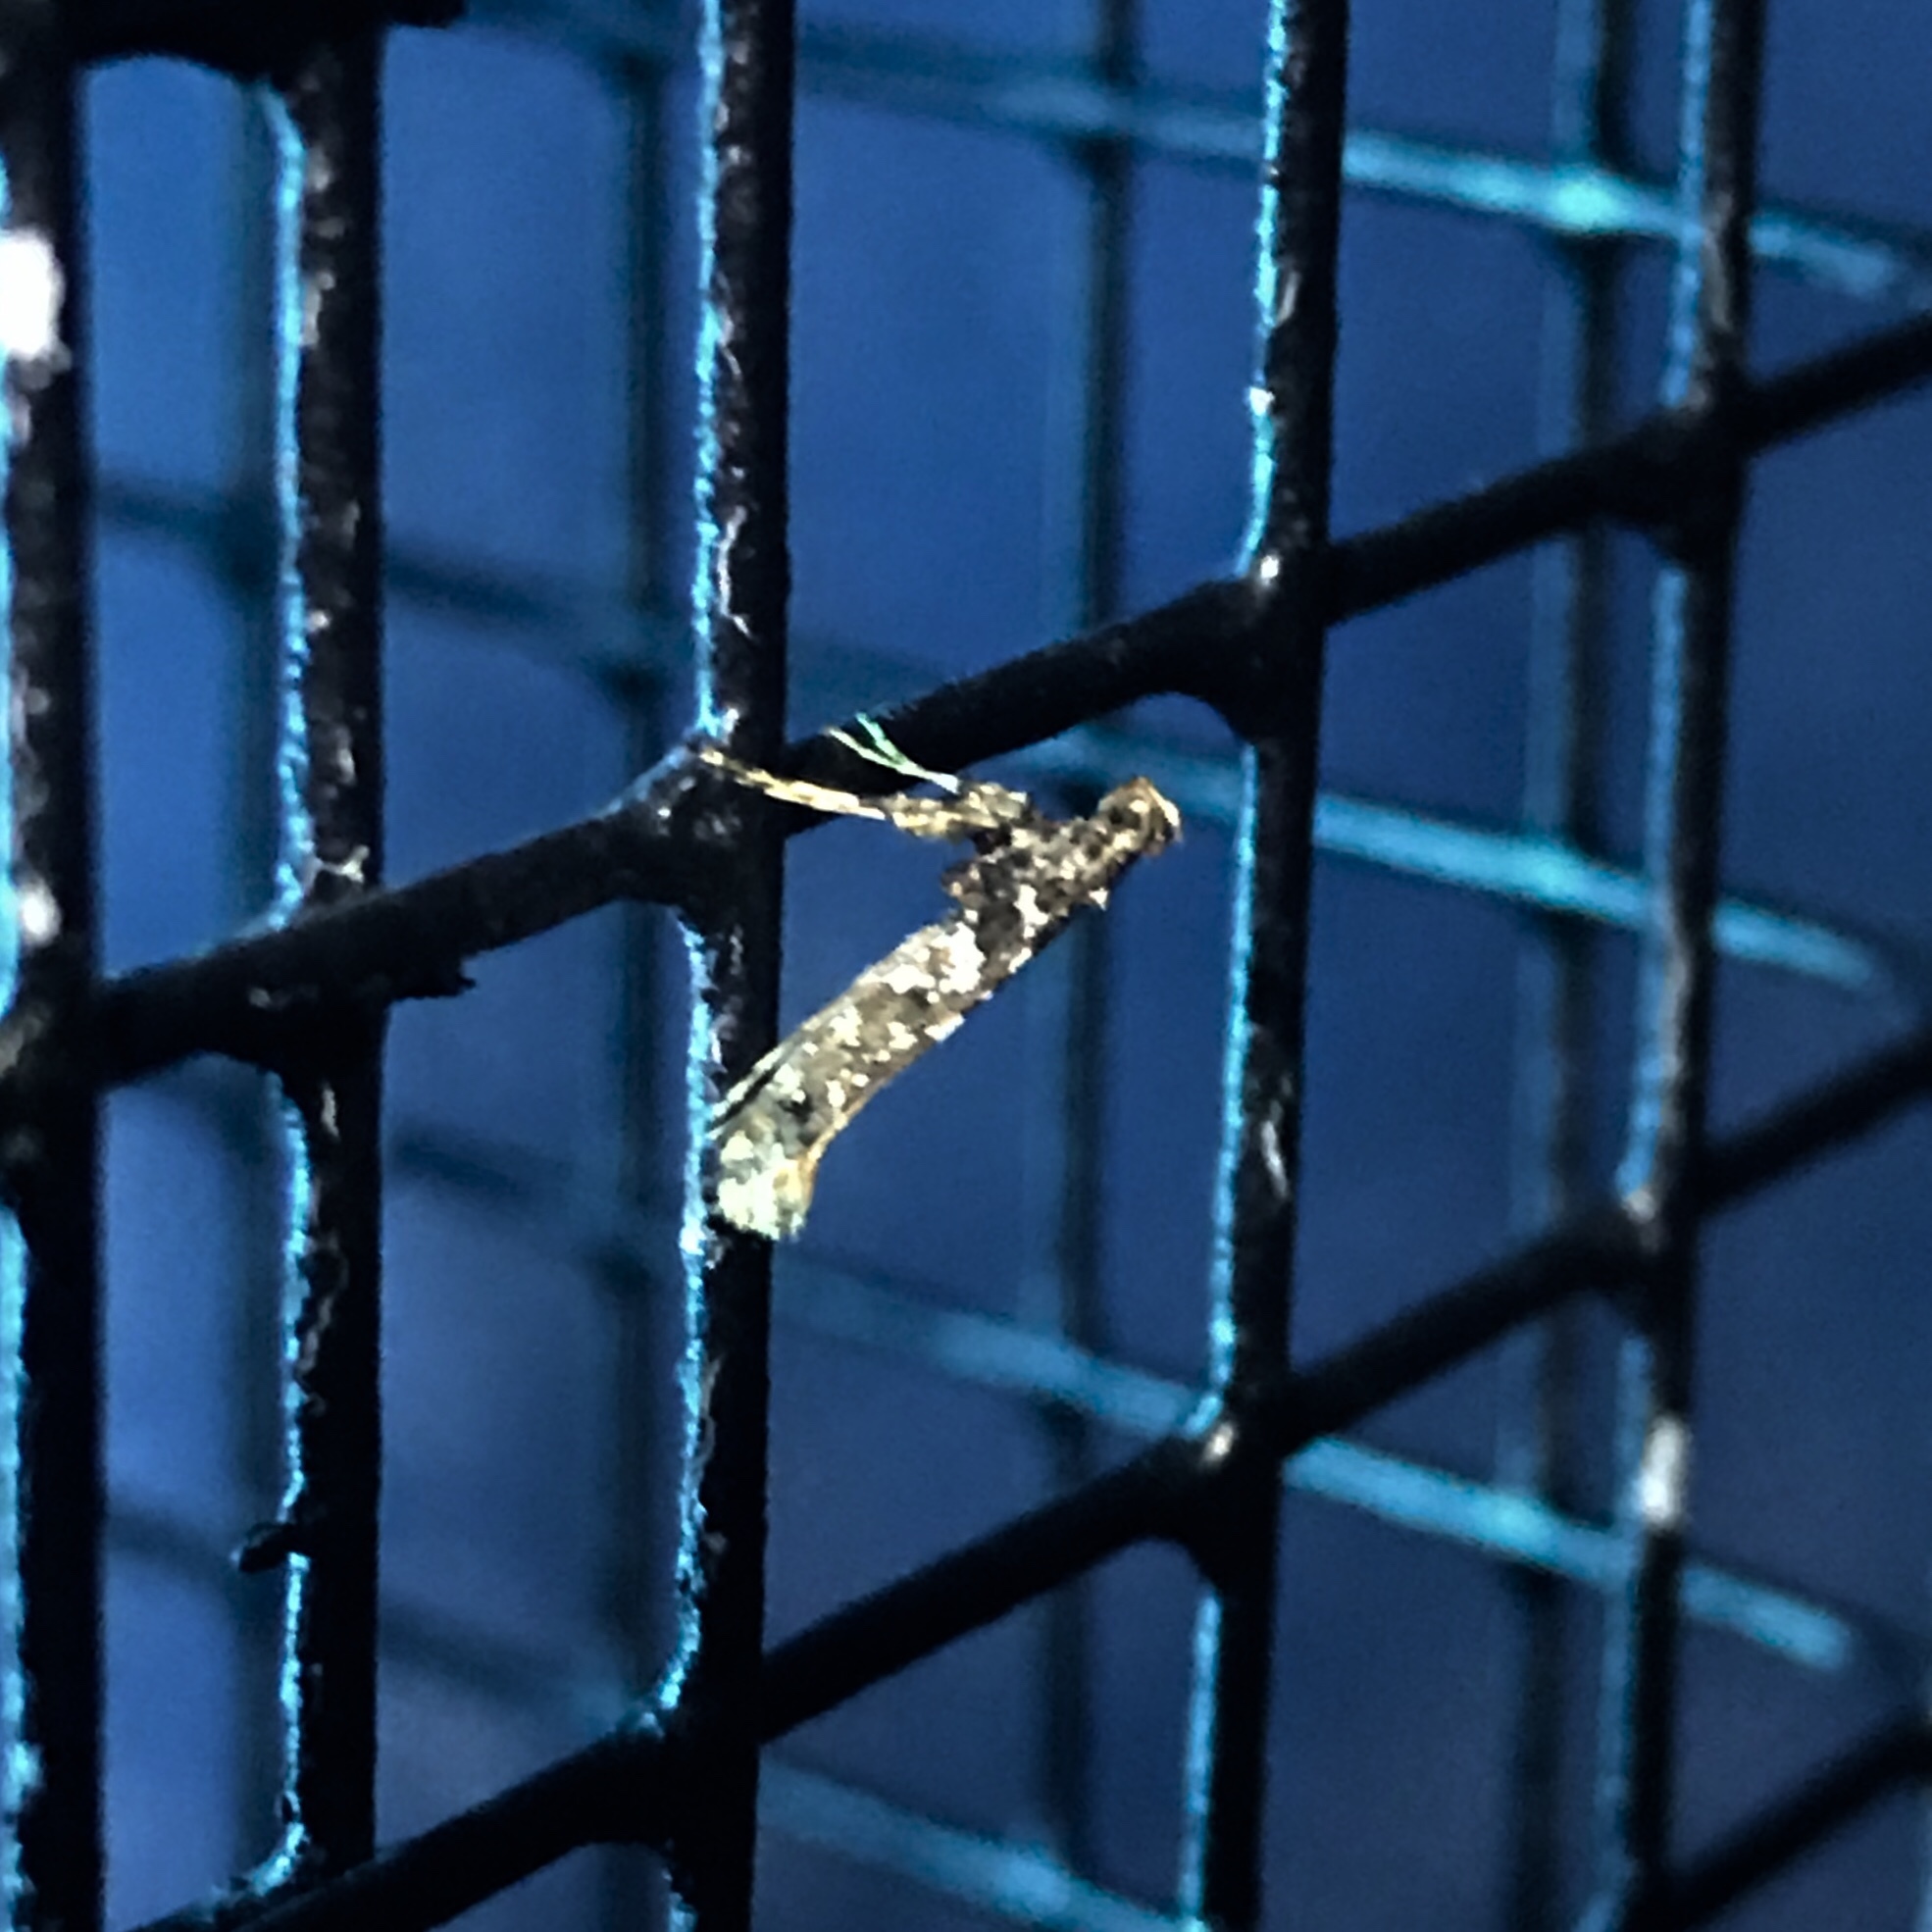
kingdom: Animalia
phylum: Arthropoda
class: Insecta
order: Lepidoptera
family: Gracillariidae
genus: Caloptilia
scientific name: Caloptilia serotinella
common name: Cherry leafroller moth
